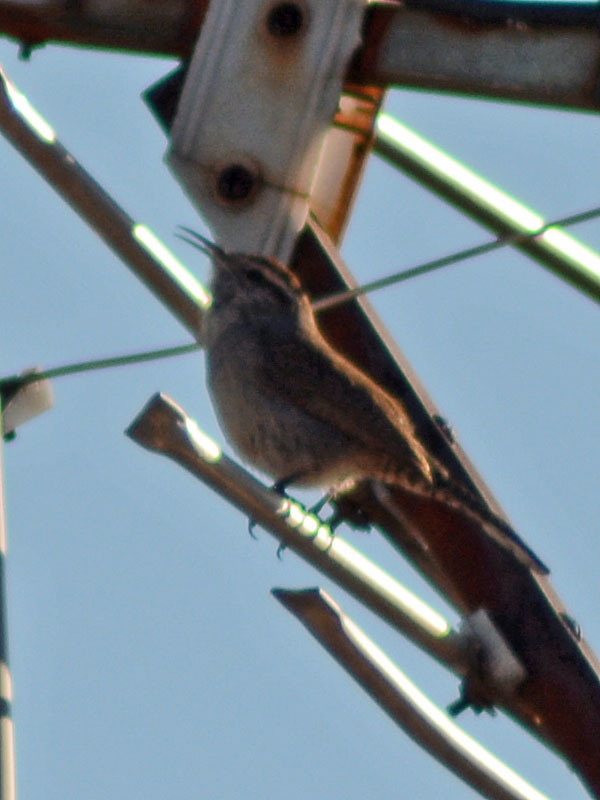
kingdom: Animalia
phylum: Chordata
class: Aves
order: Passeriformes
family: Troglodytidae
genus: Thryomanes
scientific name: Thryomanes bewickii
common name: Bewick's wren
